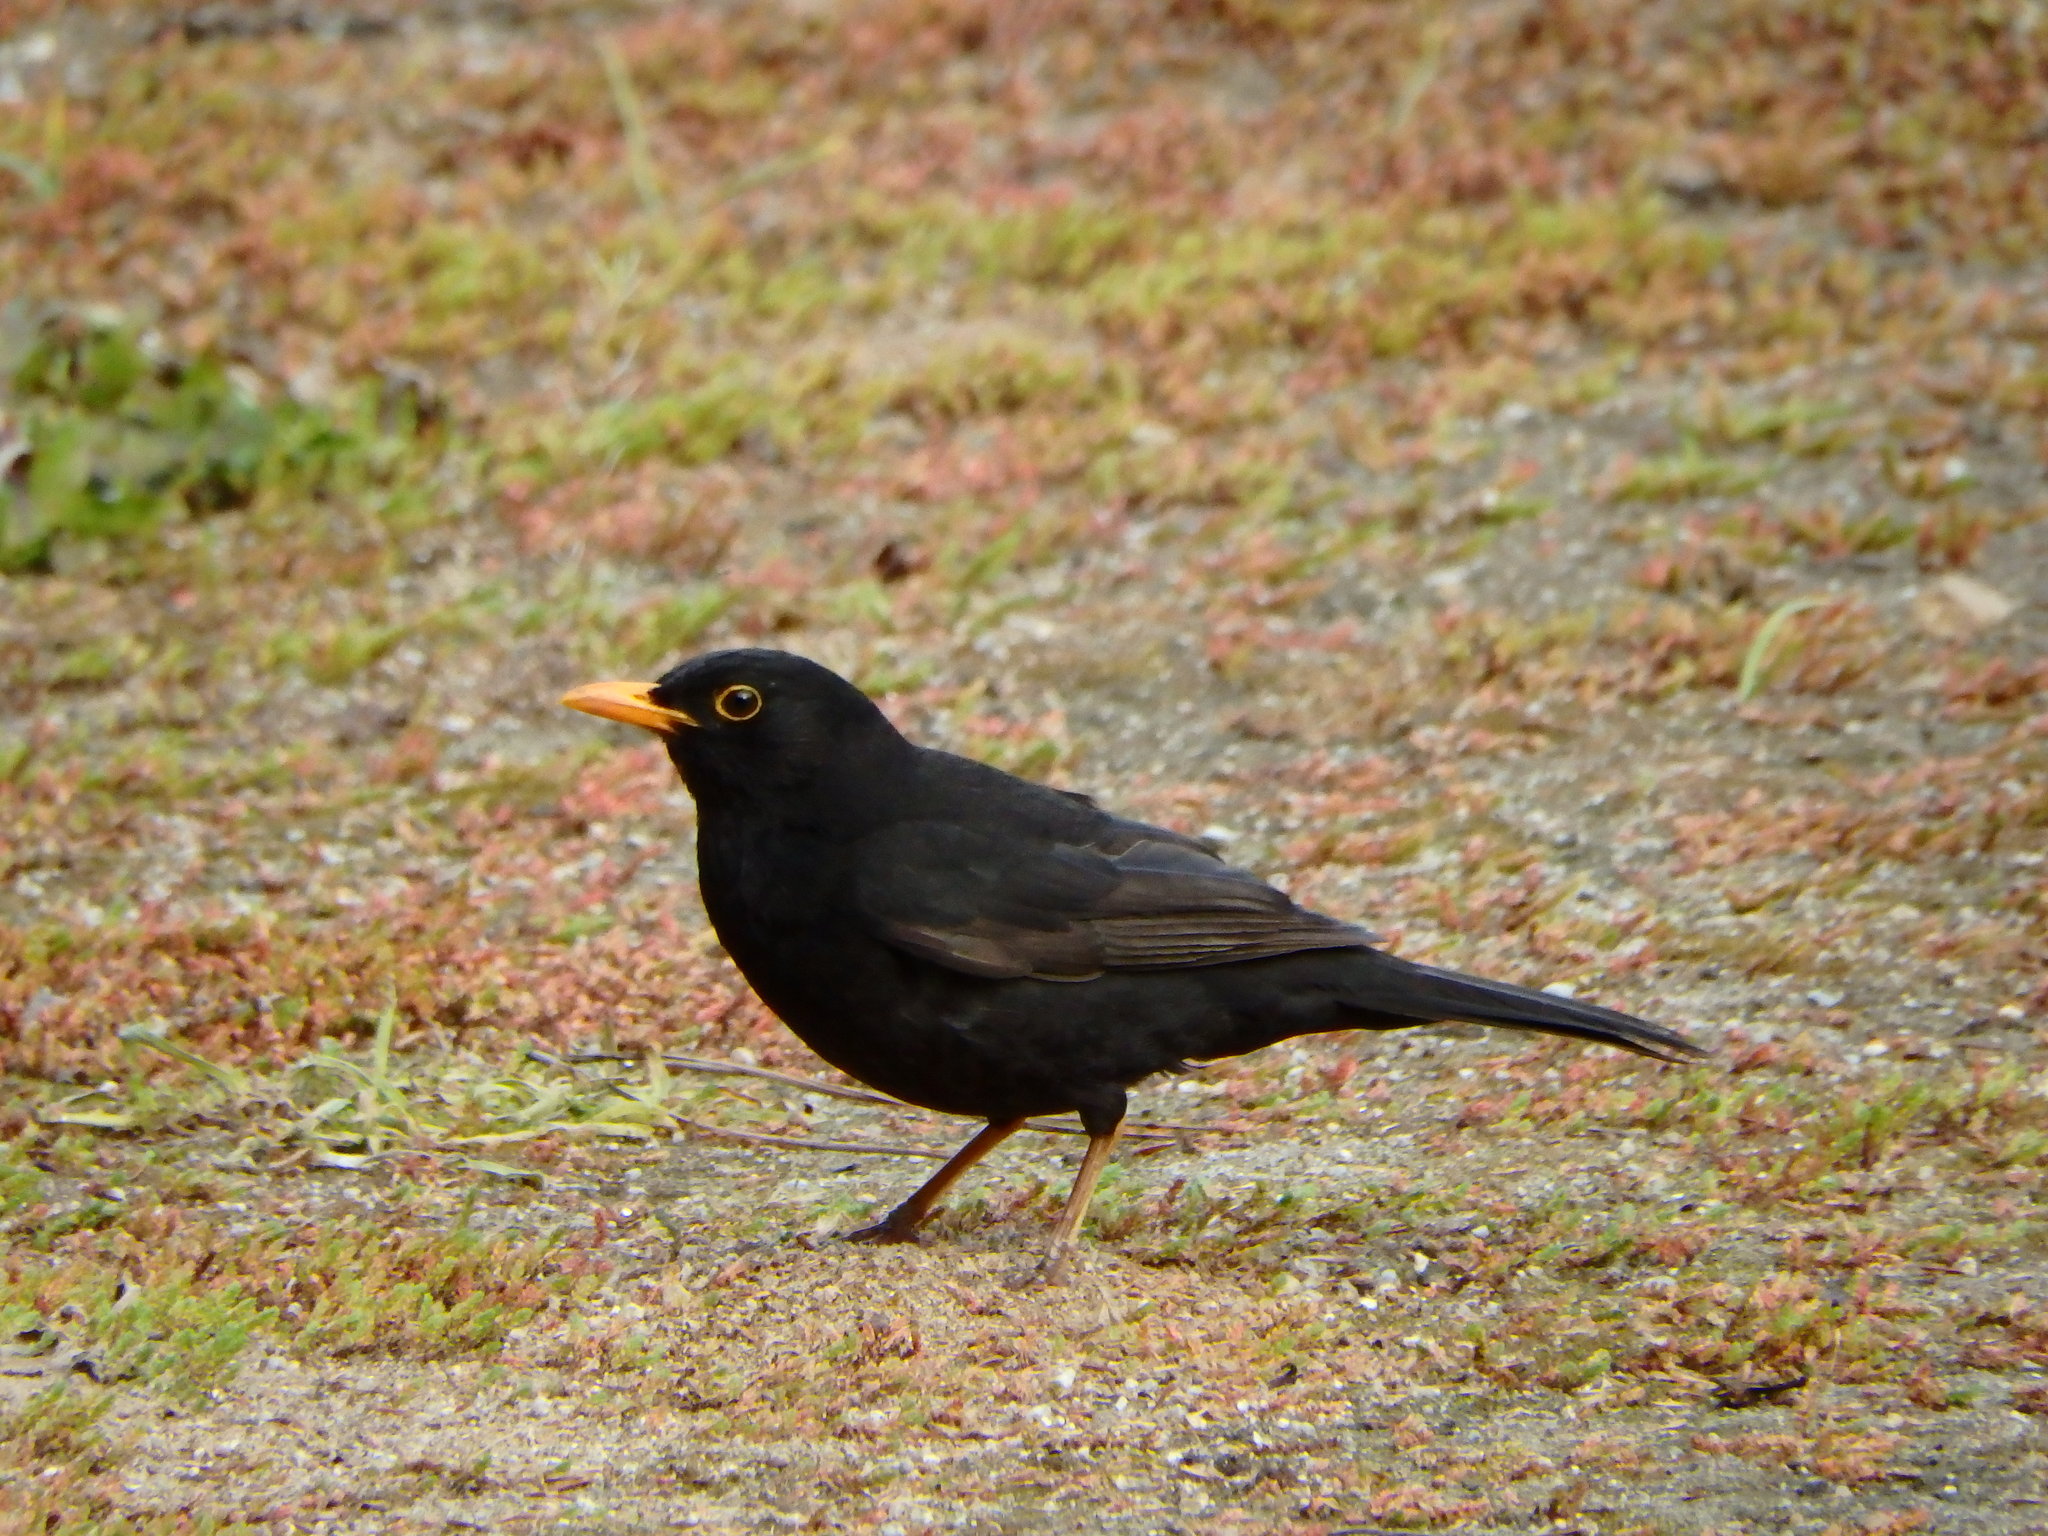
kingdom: Animalia
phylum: Chordata
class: Aves
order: Passeriformes
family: Turdidae
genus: Turdus
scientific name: Turdus merula
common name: Common blackbird
